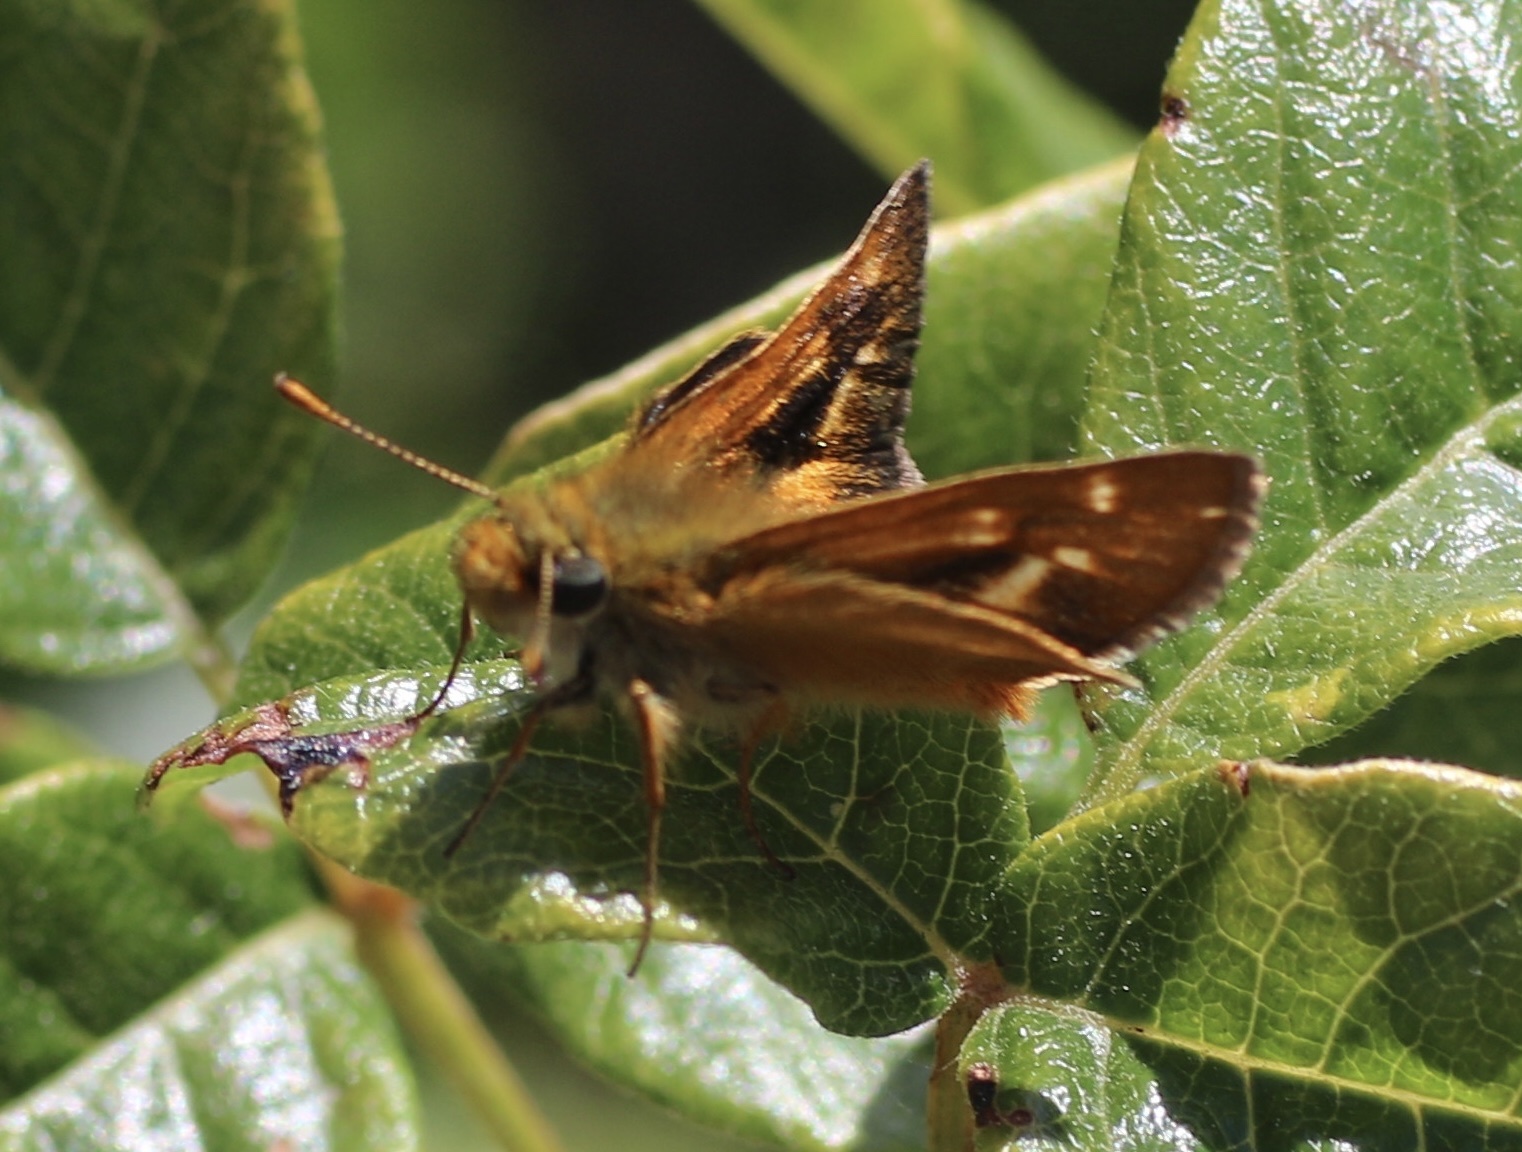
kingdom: Animalia
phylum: Arthropoda
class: Insecta
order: Lepidoptera
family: Hesperiidae
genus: Ochlodes
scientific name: Ochlodes agricola
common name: Rural skipper
